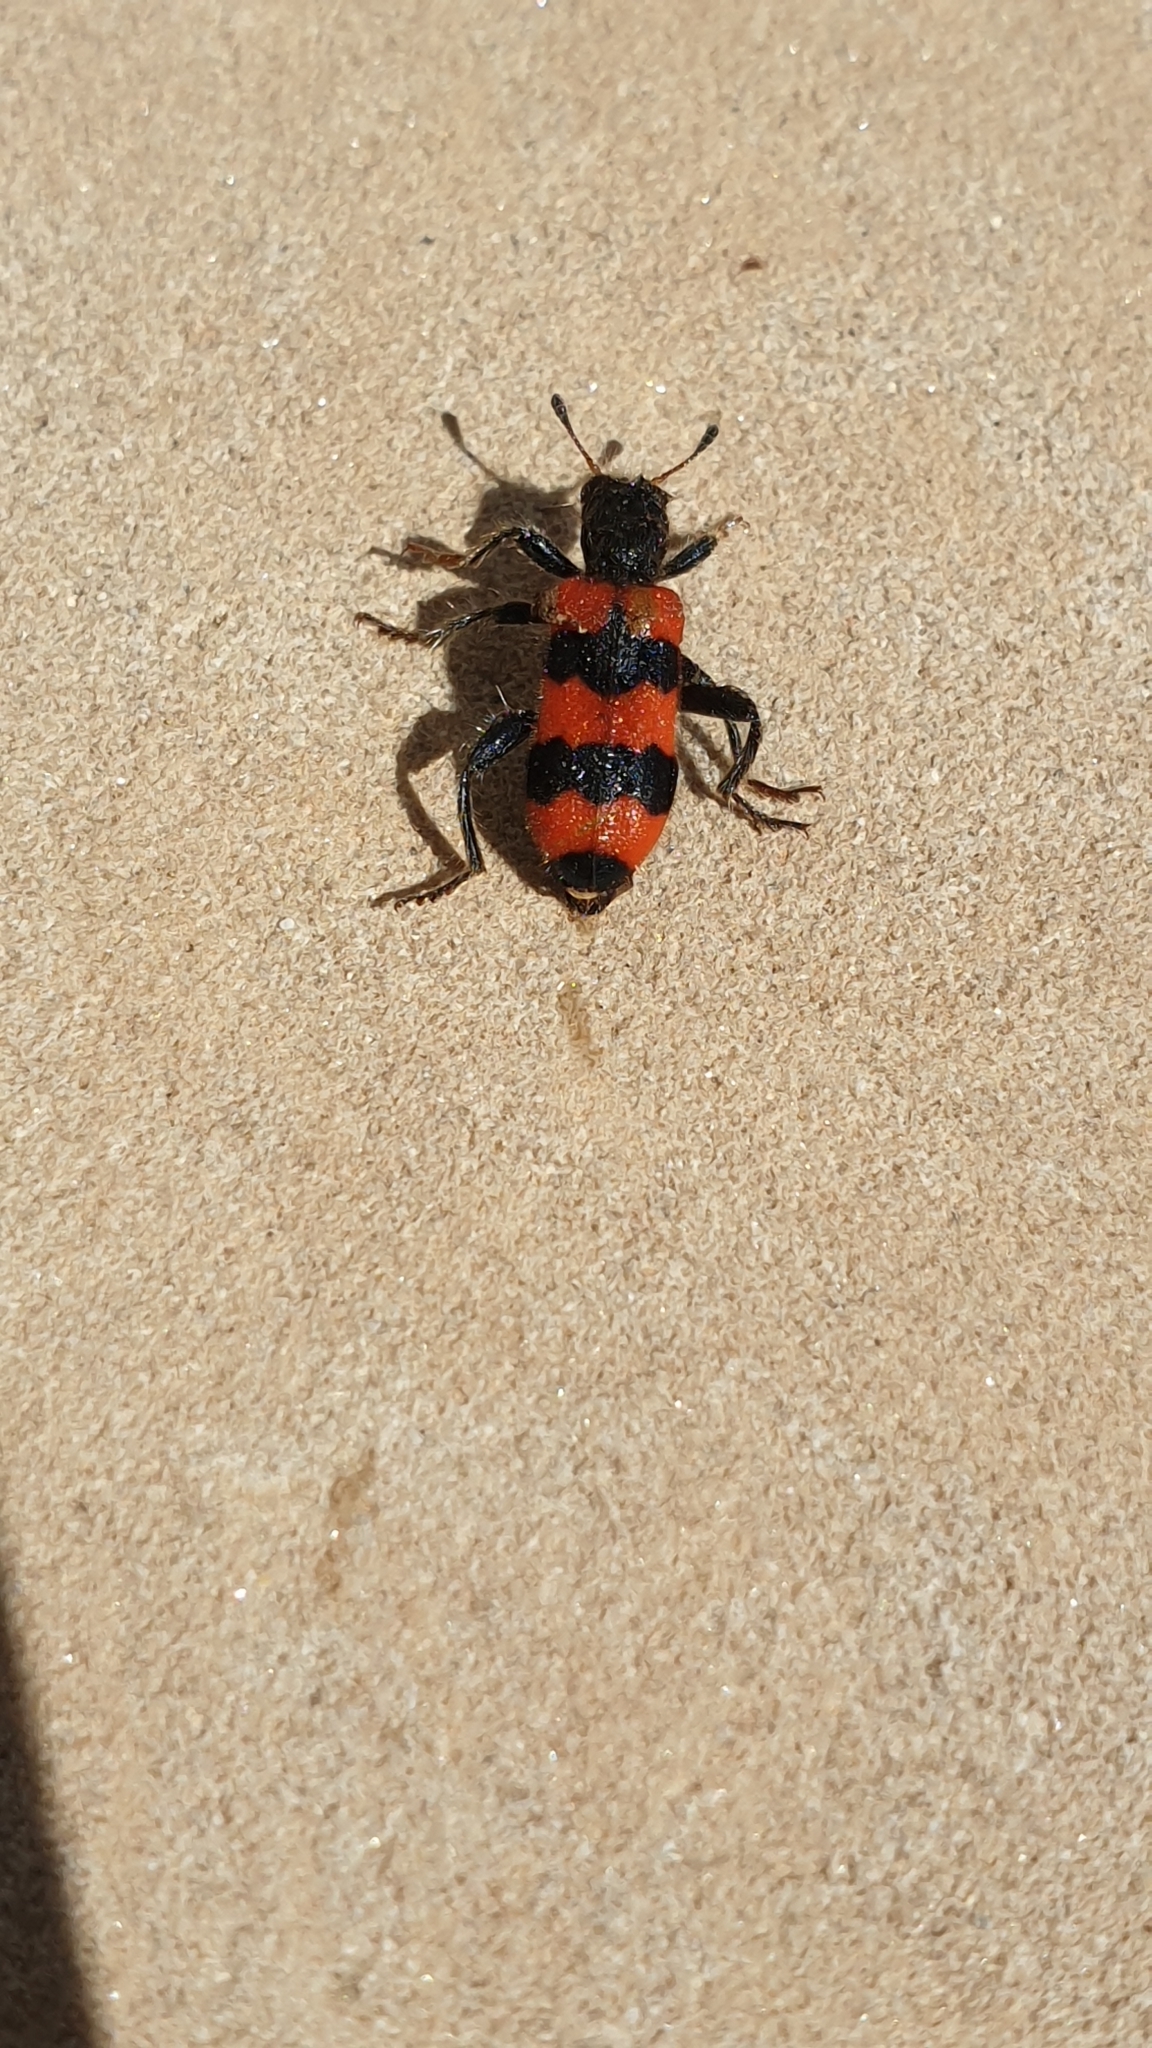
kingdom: Animalia
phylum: Arthropoda
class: Insecta
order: Coleoptera
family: Cleridae
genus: Trichodes
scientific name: Trichodes apiarius
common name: Bee-eating beetle
